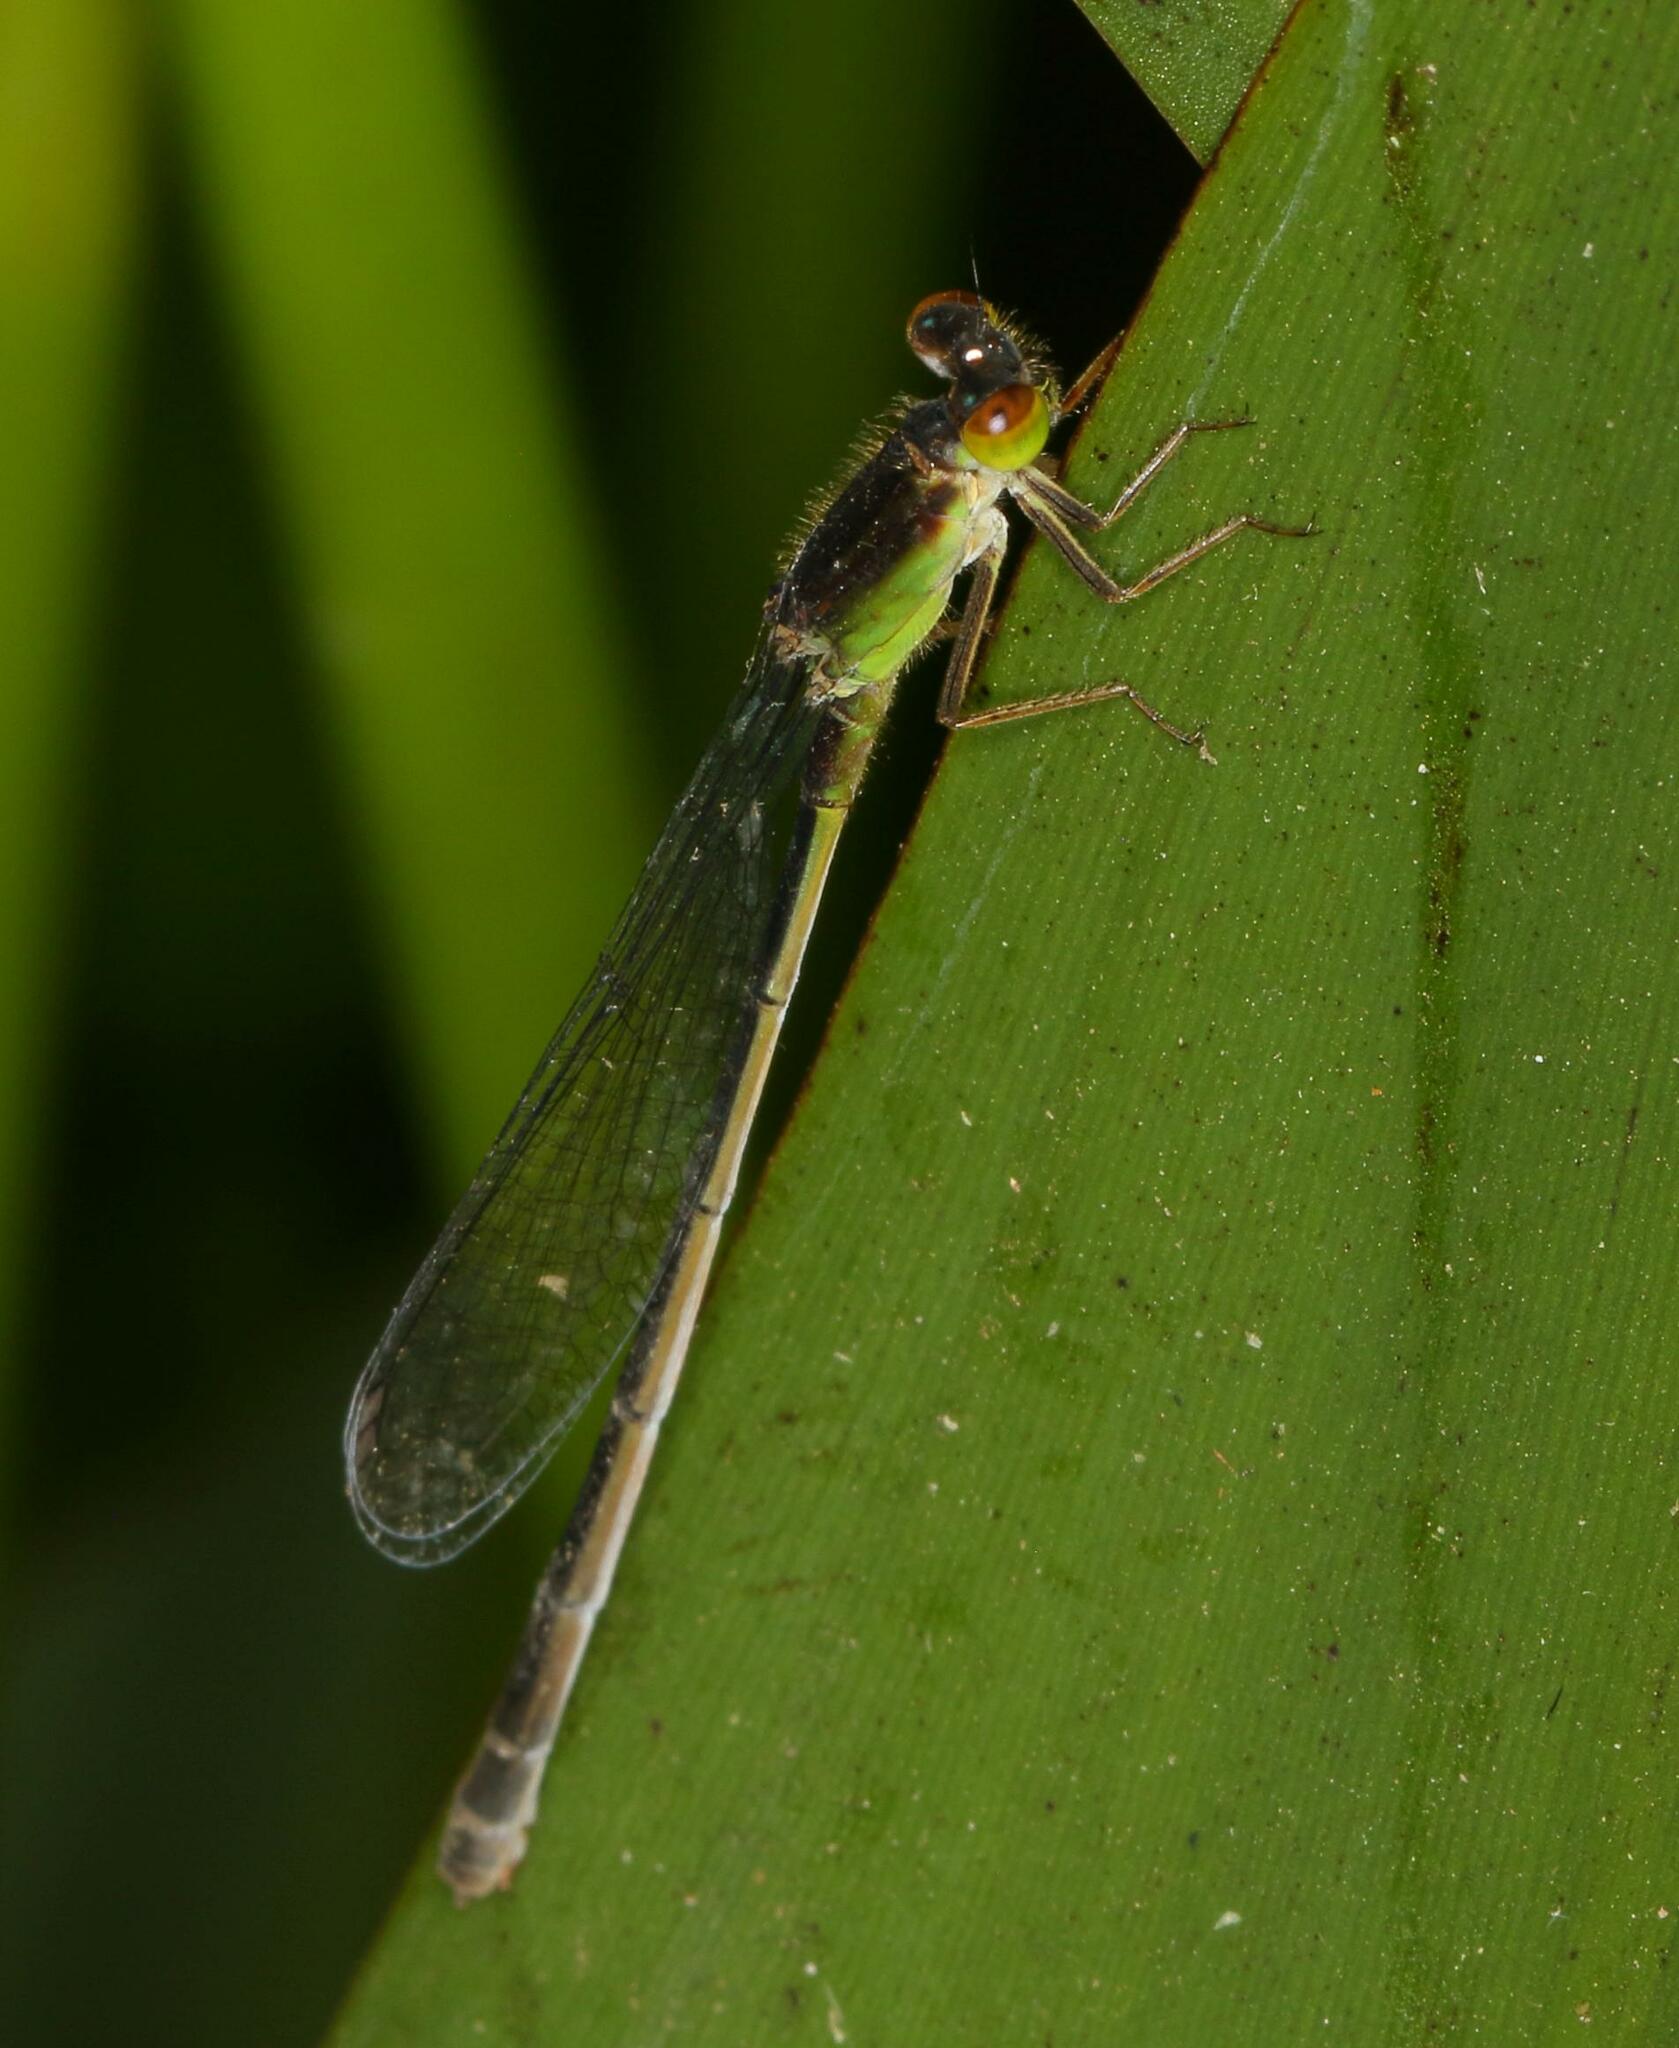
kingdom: Animalia
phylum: Arthropoda
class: Insecta
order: Odonata
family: Coenagrionidae
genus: Ischnura
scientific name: Ischnura senegalensis
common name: Tropical bluetail
